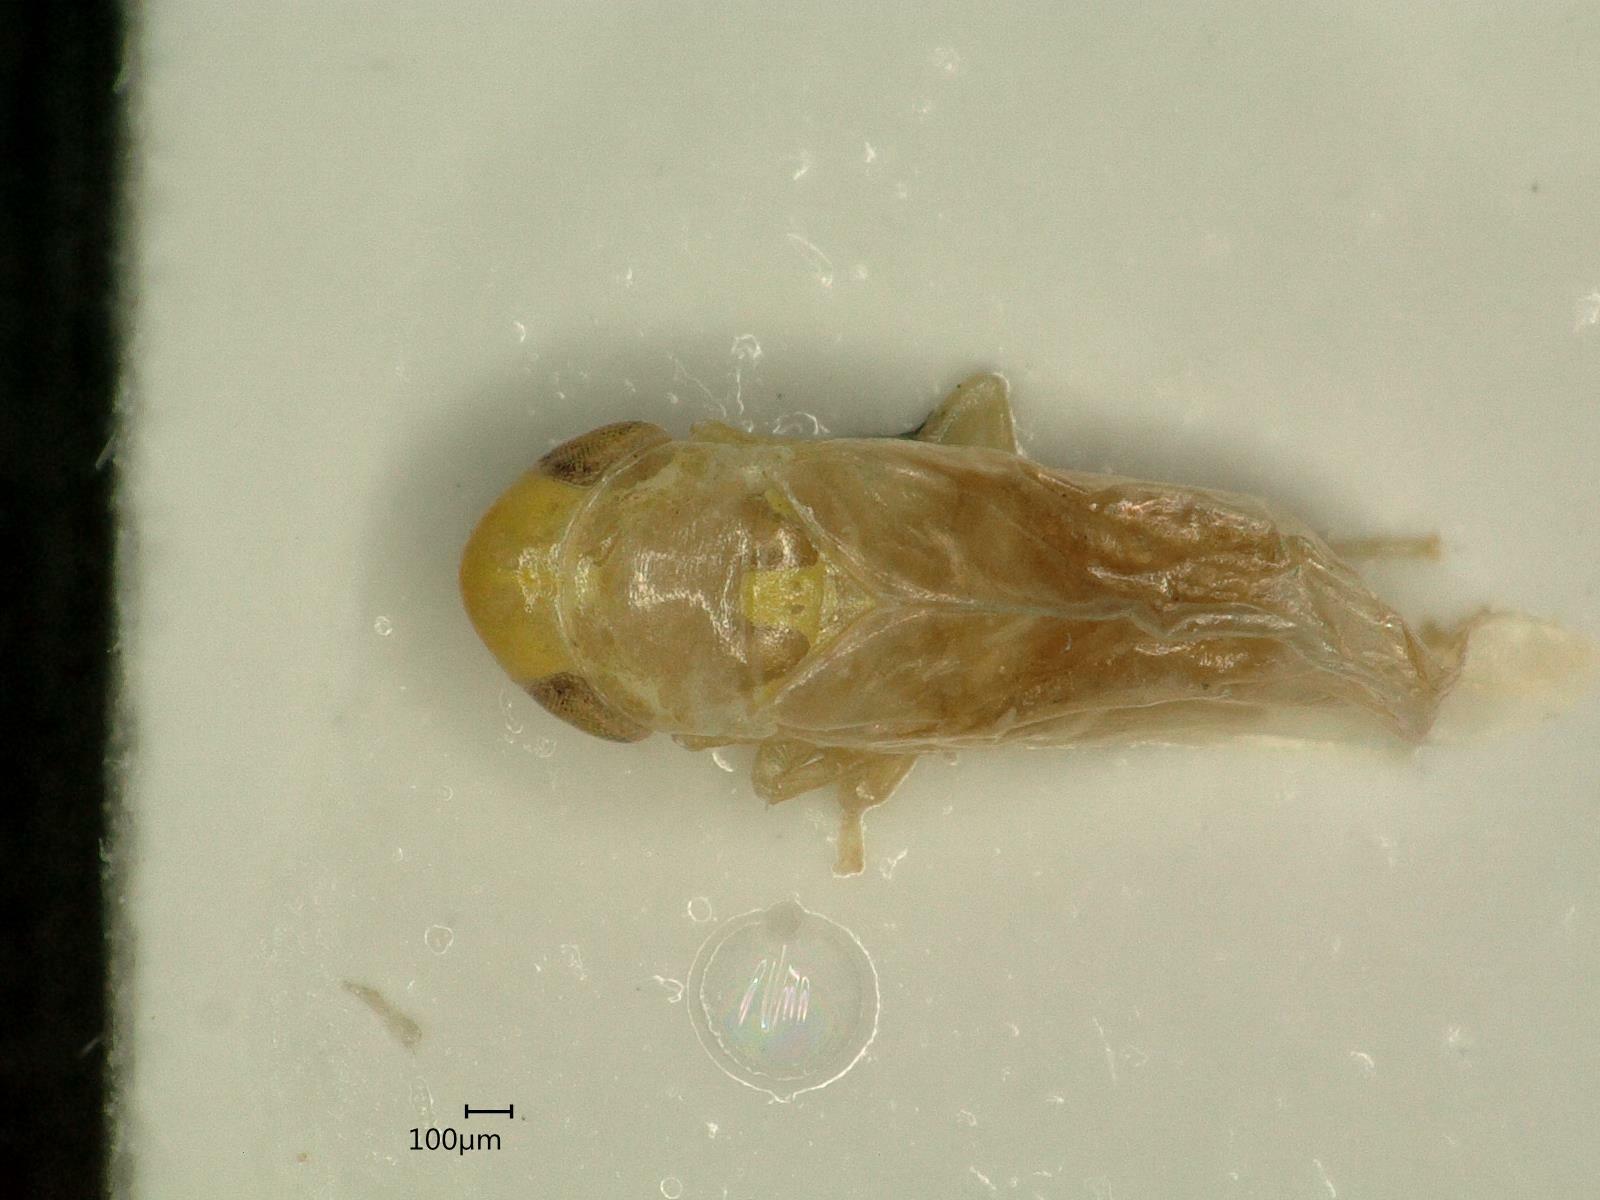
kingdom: Animalia
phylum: Arthropoda
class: Insecta
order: Hemiptera
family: Cicadellidae
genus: Dikraneura
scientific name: Dikraneura variata
